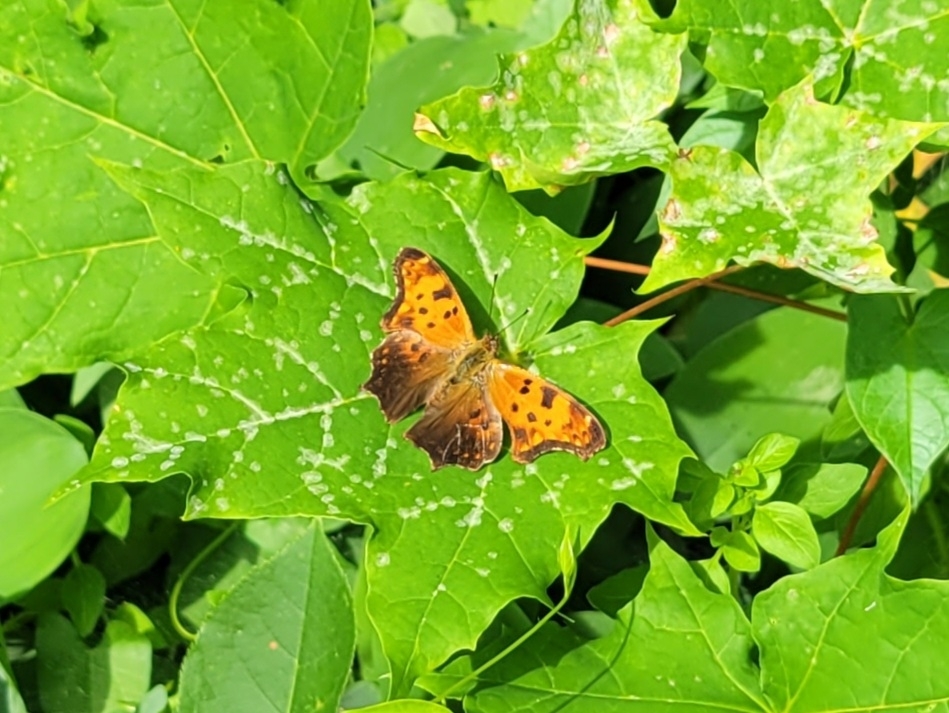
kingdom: Animalia
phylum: Arthropoda
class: Insecta
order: Lepidoptera
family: Nymphalidae
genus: Polygonia
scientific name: Polygonia comma
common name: Eastern comma
